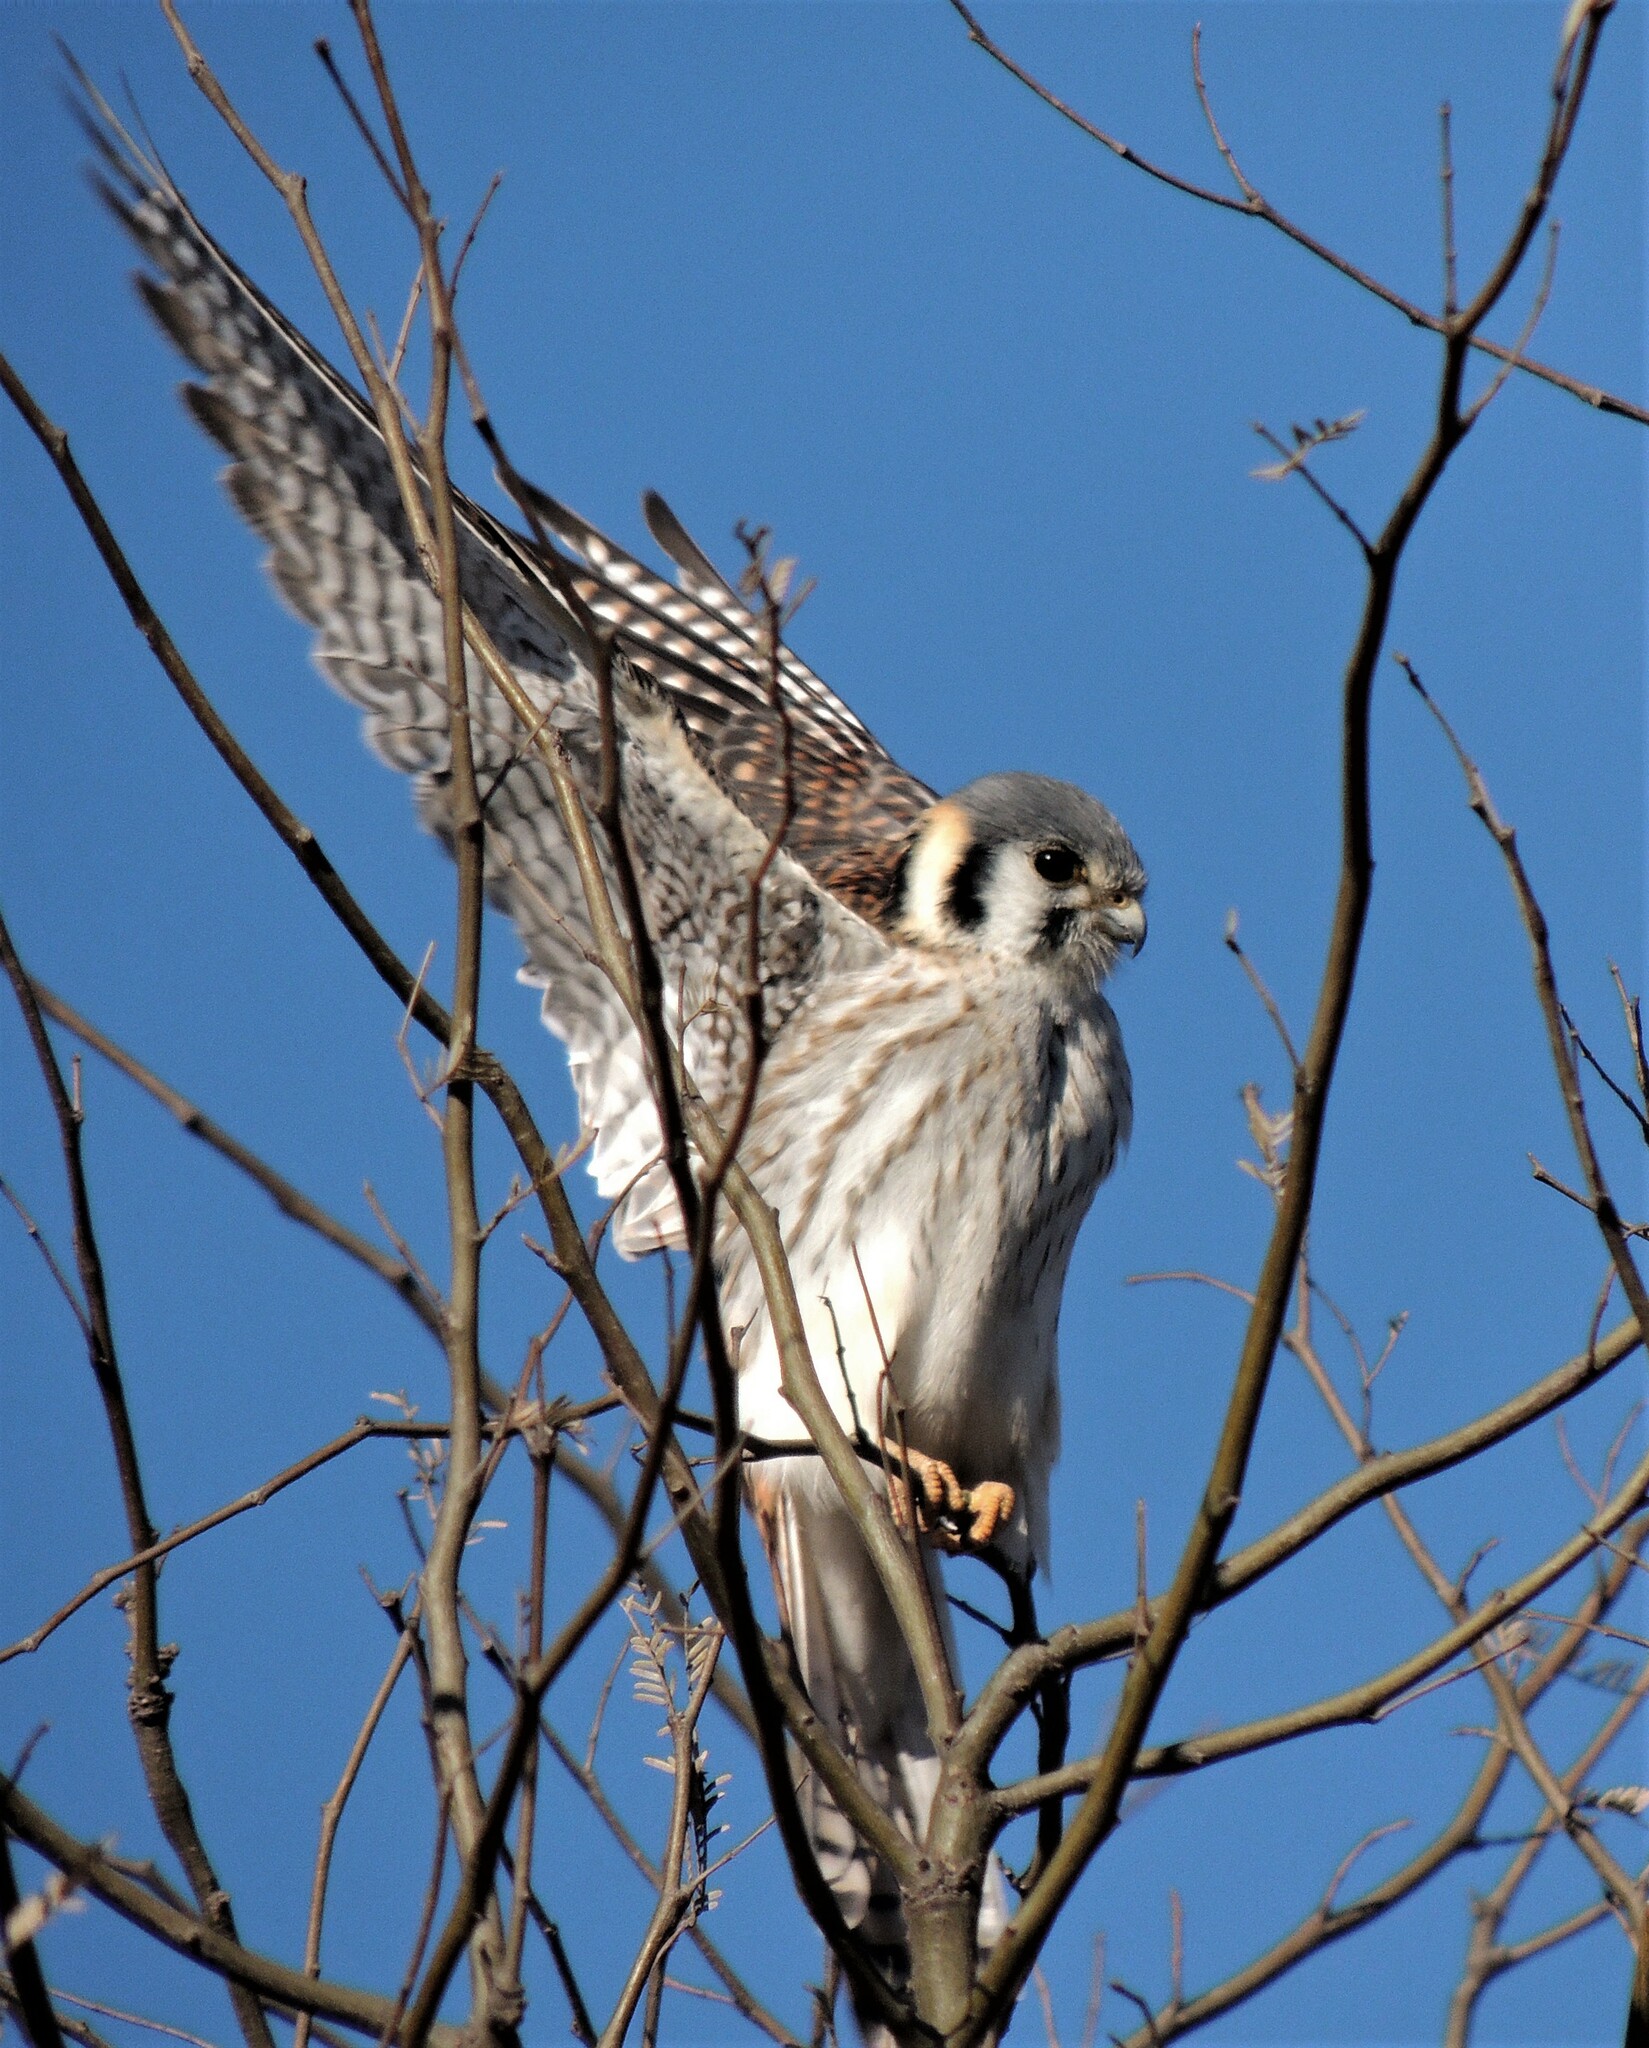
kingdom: Animalia
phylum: Chordata
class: Aves
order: Falconiformes
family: Falconidae
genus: Falco
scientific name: Falco sparverius
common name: American kestrel
